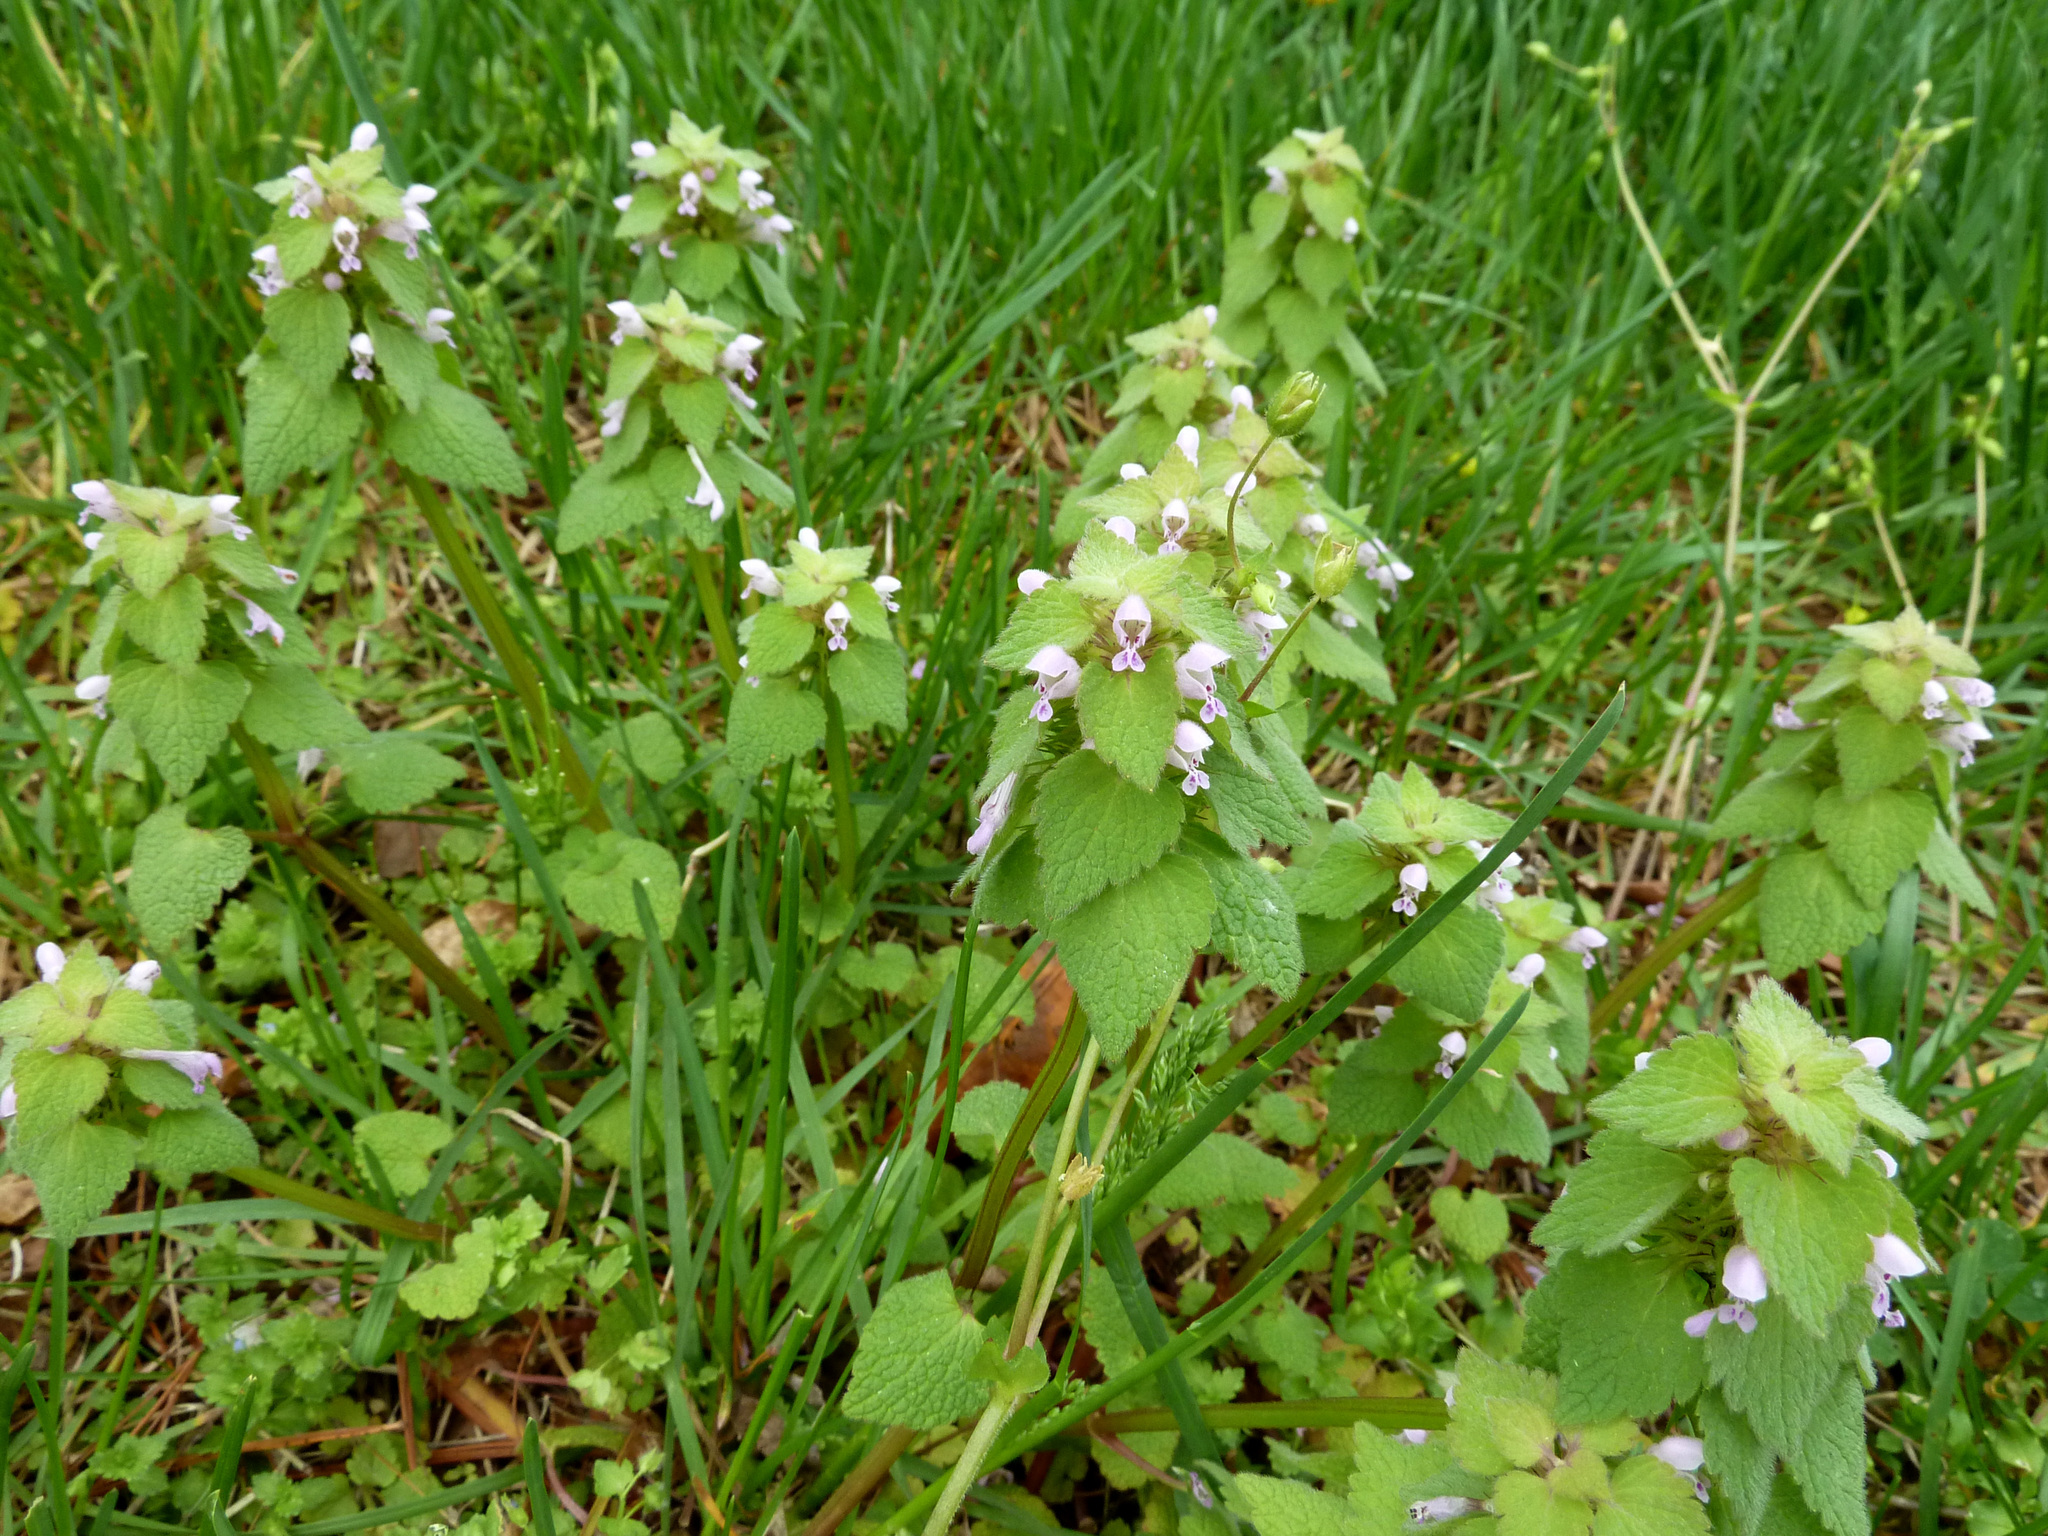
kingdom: Plantae
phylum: Tracheophyta
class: Magnoliopsida
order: Lamiales
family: Lamiaceae
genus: Lamium
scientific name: Lamium purpureum
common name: Red dead-nettle
